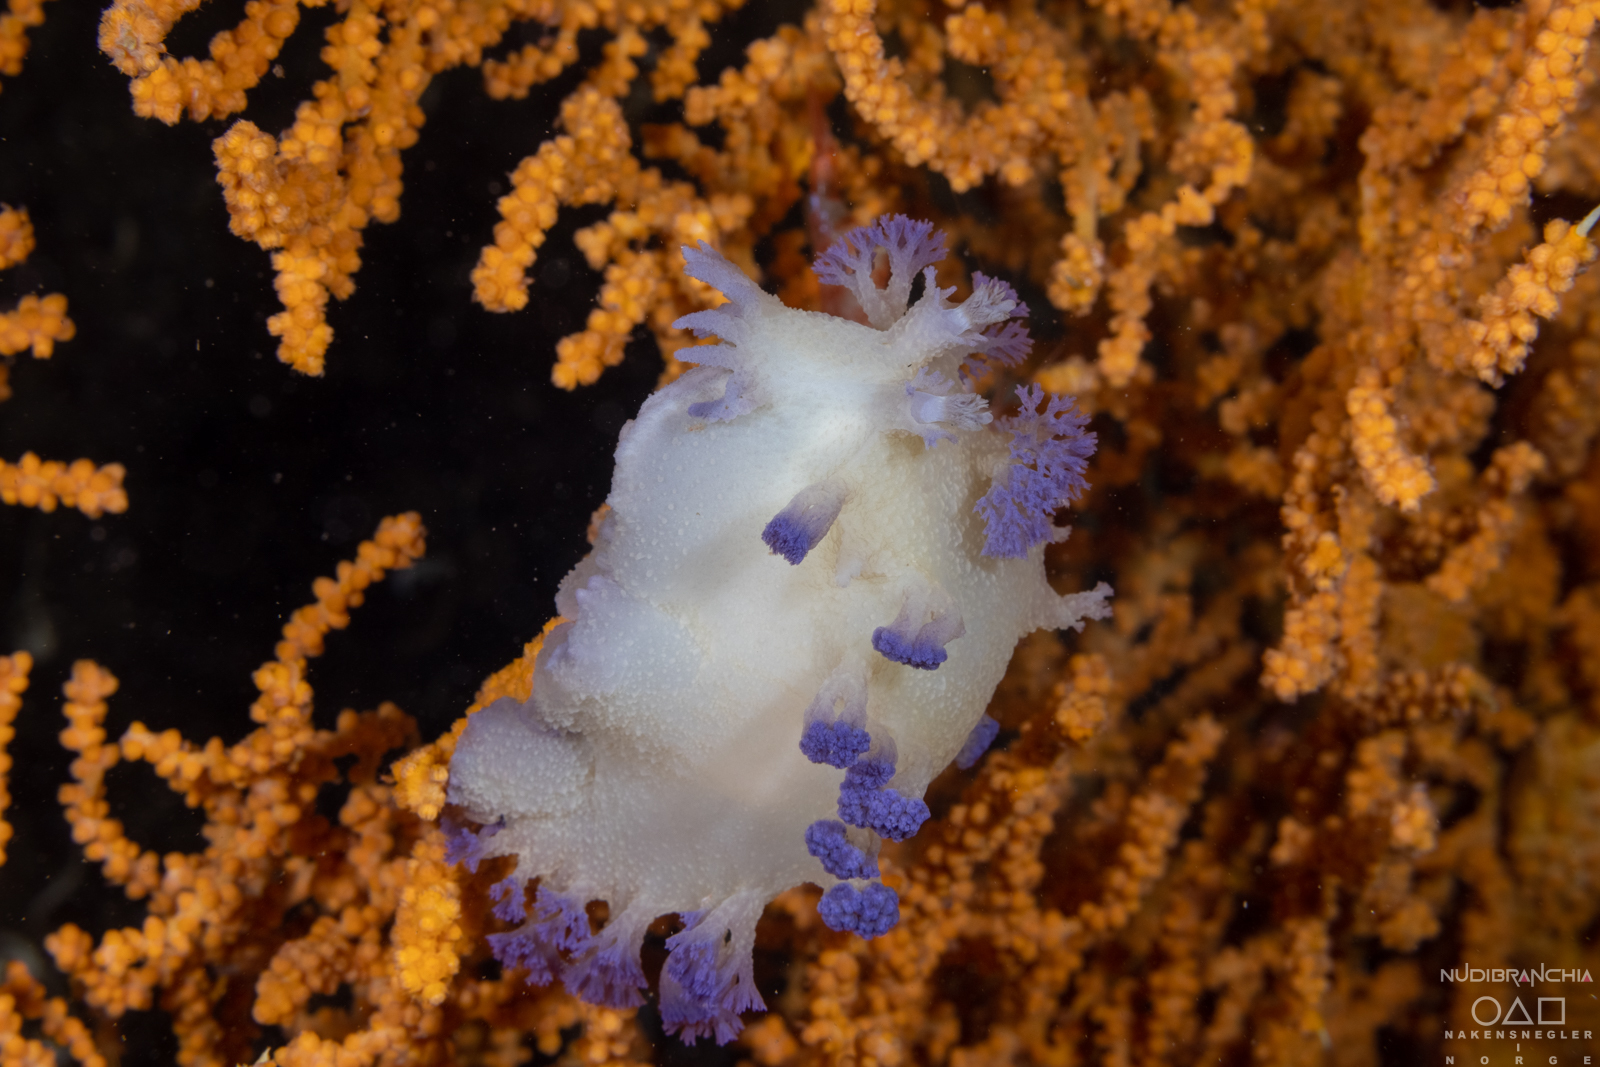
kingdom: Animalia
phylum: Mollusca
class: Gastropoda
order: Nudibranchia
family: Tritoniidae
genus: Tritonia
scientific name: Tritonia griegi
